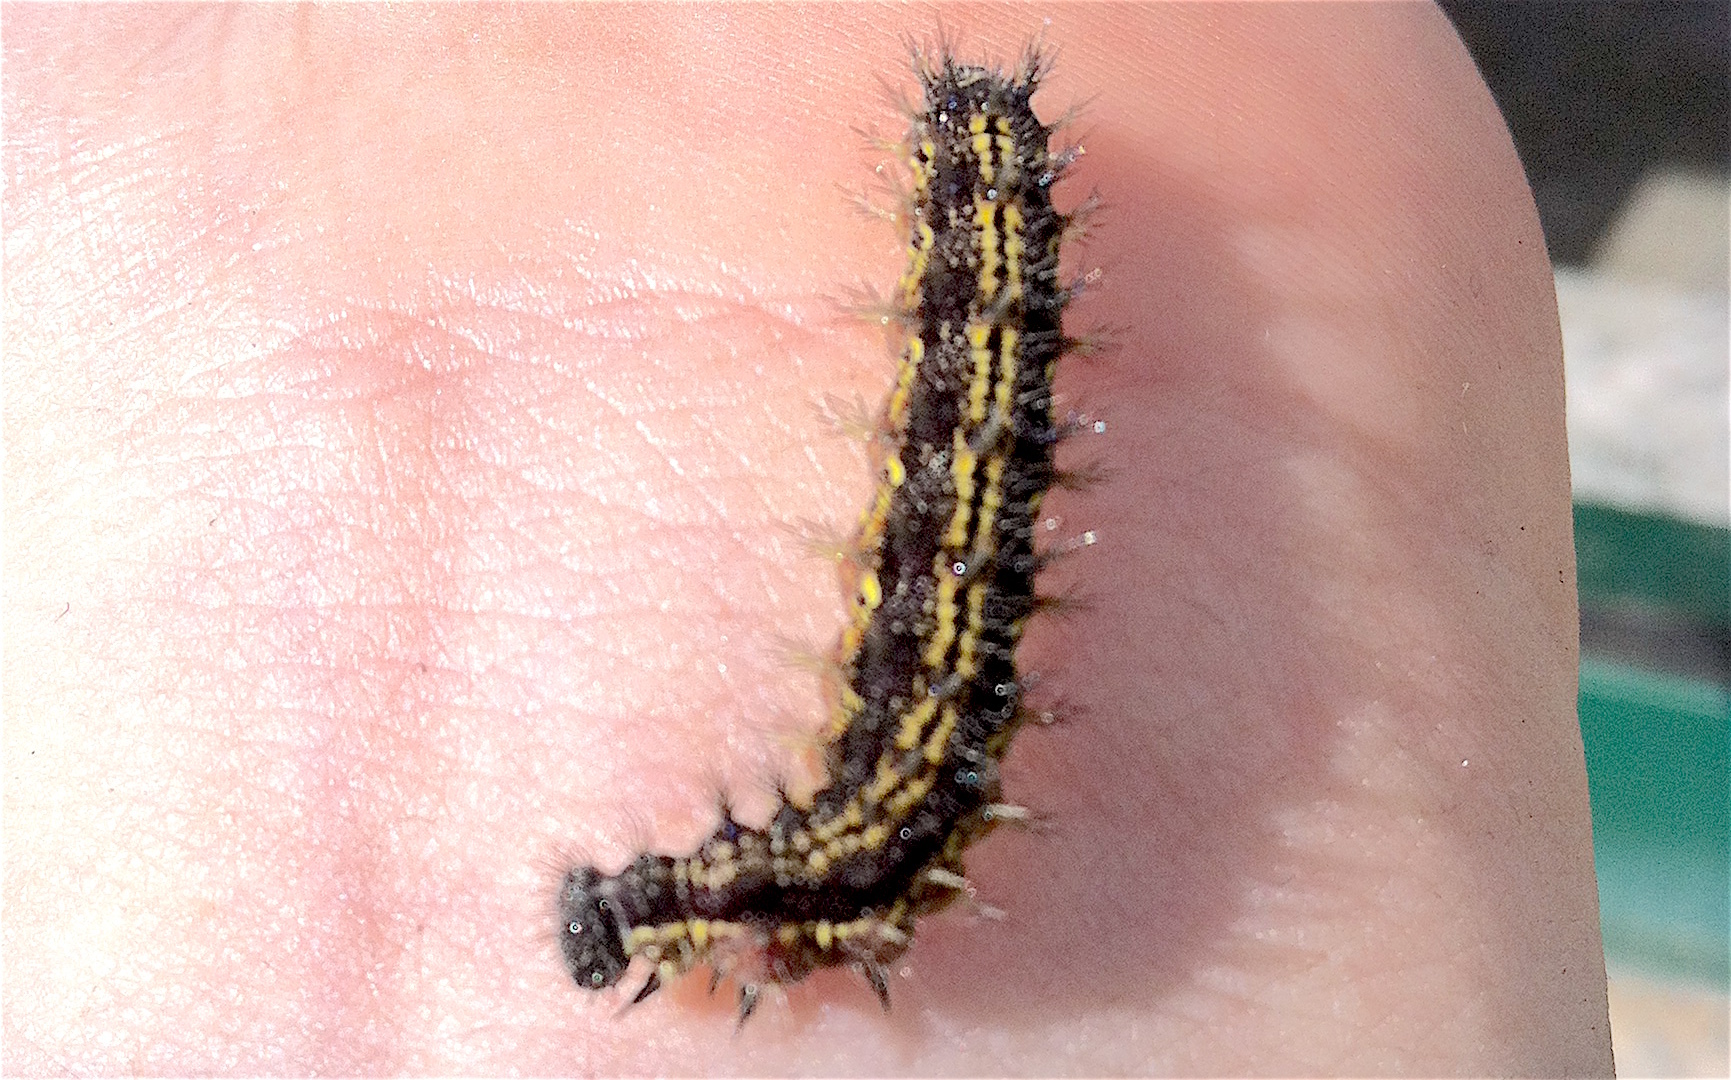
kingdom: Animalia
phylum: Arthropoda
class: Insecta
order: Lepidoptera
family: Nymphalidae
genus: Aglais
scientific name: Aglais urticae
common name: Small tortoiseshell
